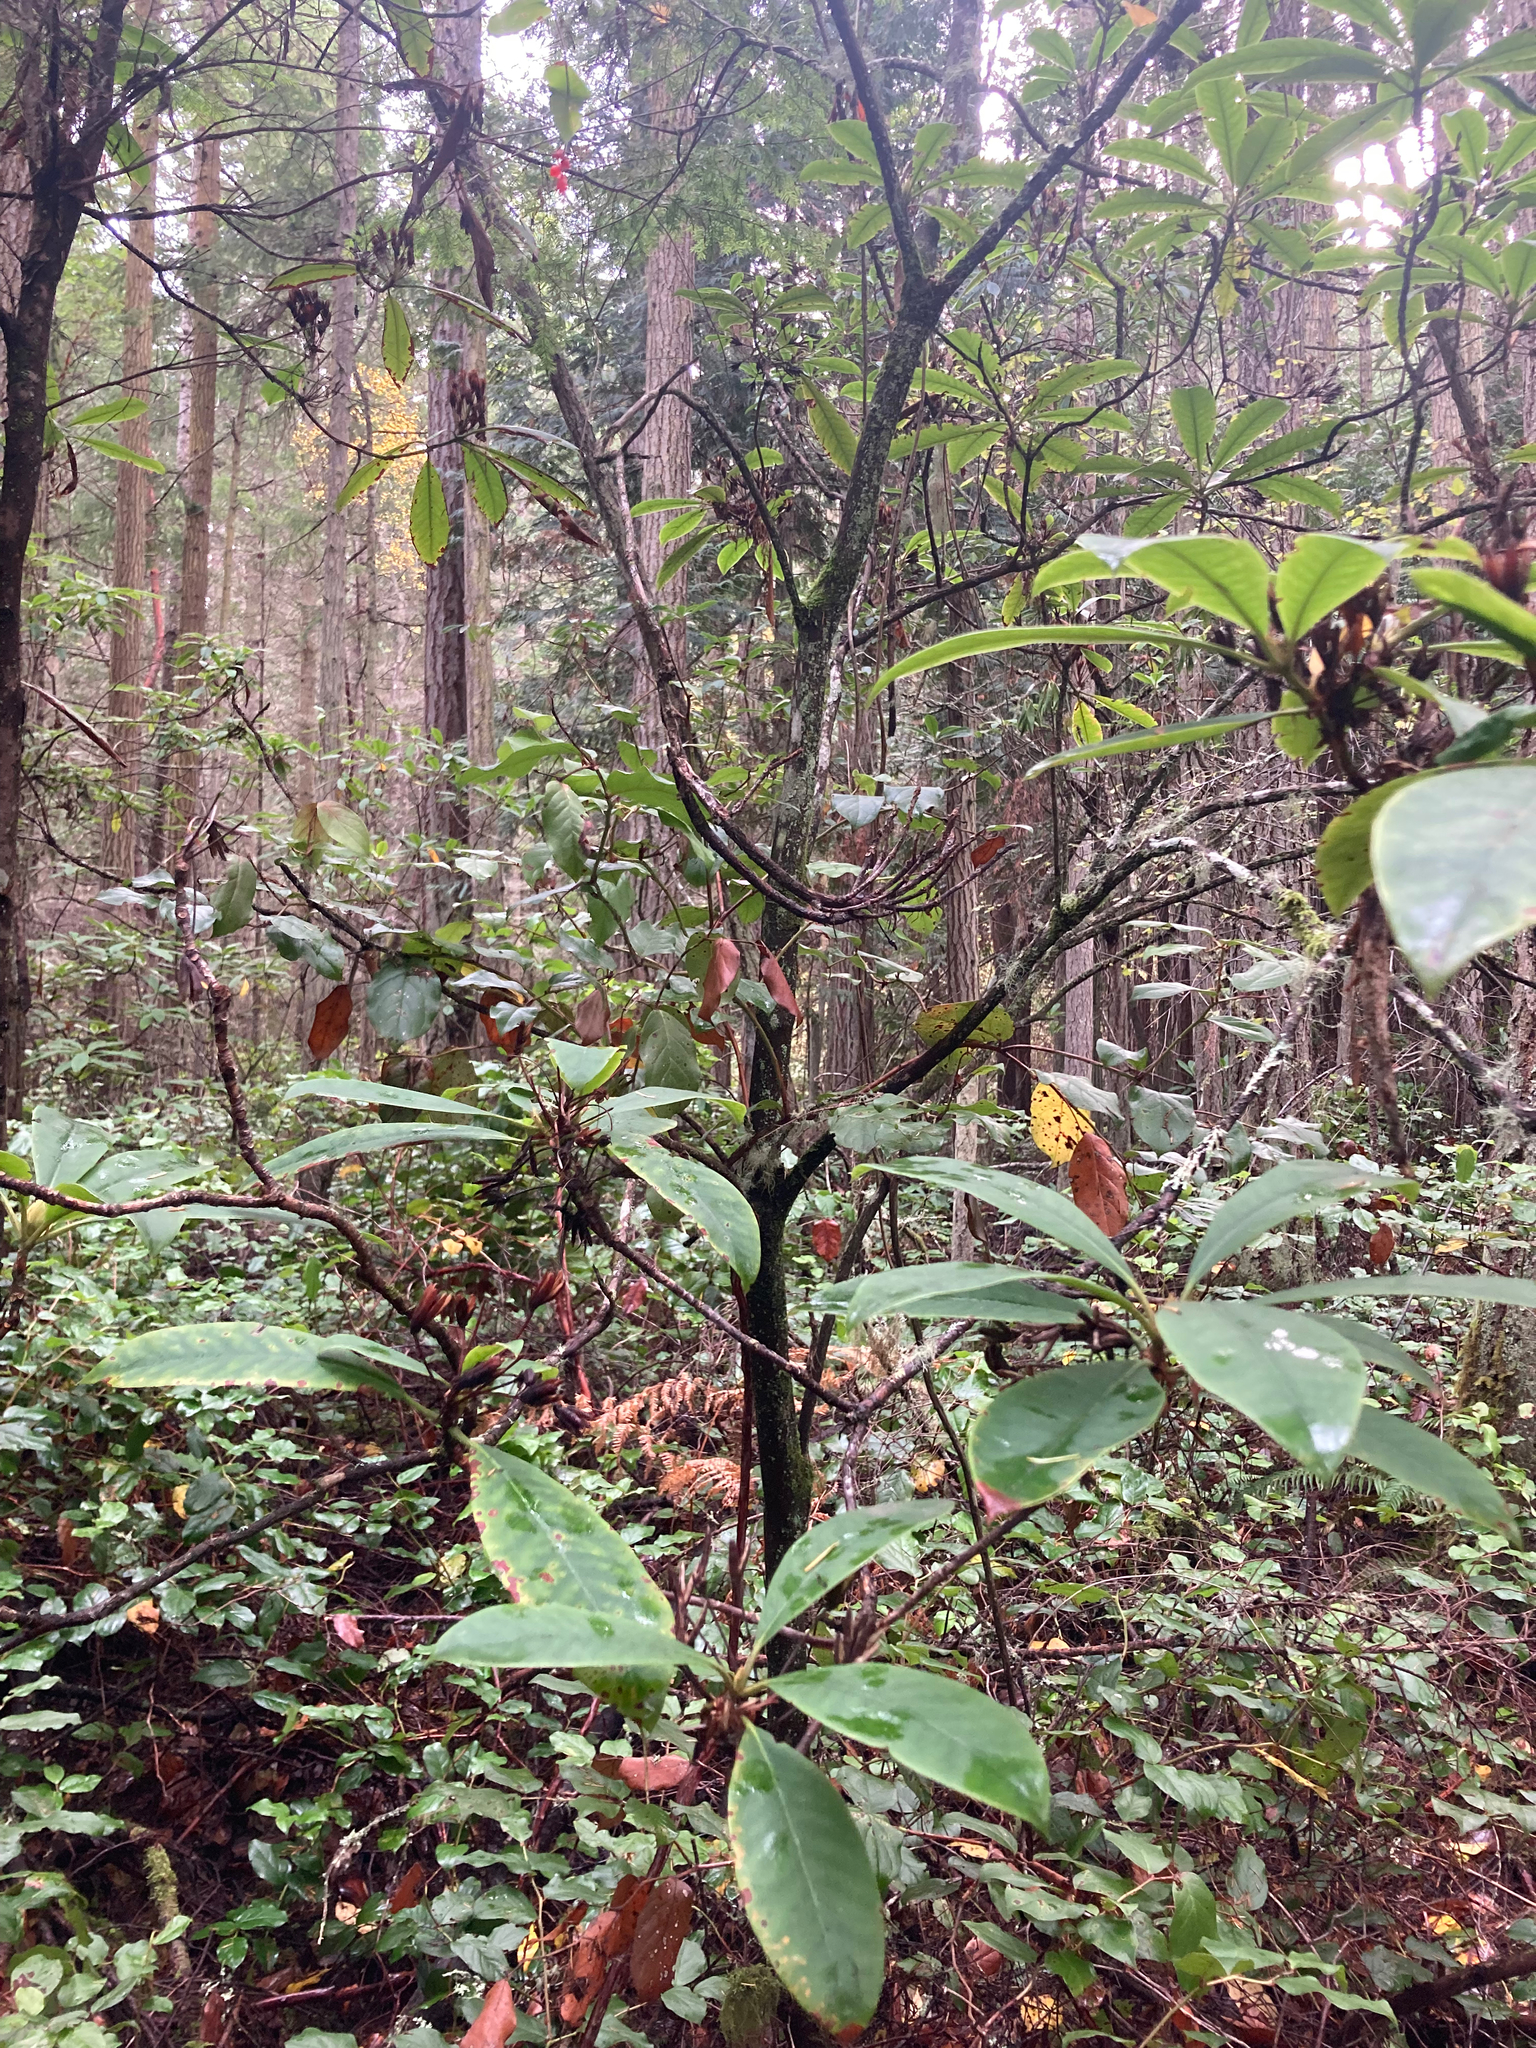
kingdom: Plantae
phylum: Tracheophyta
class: Magnoliopsida
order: Ericales
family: Ericaceae
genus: Rhododendron
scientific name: Rhododendron macrophyllum
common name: California rose bay
